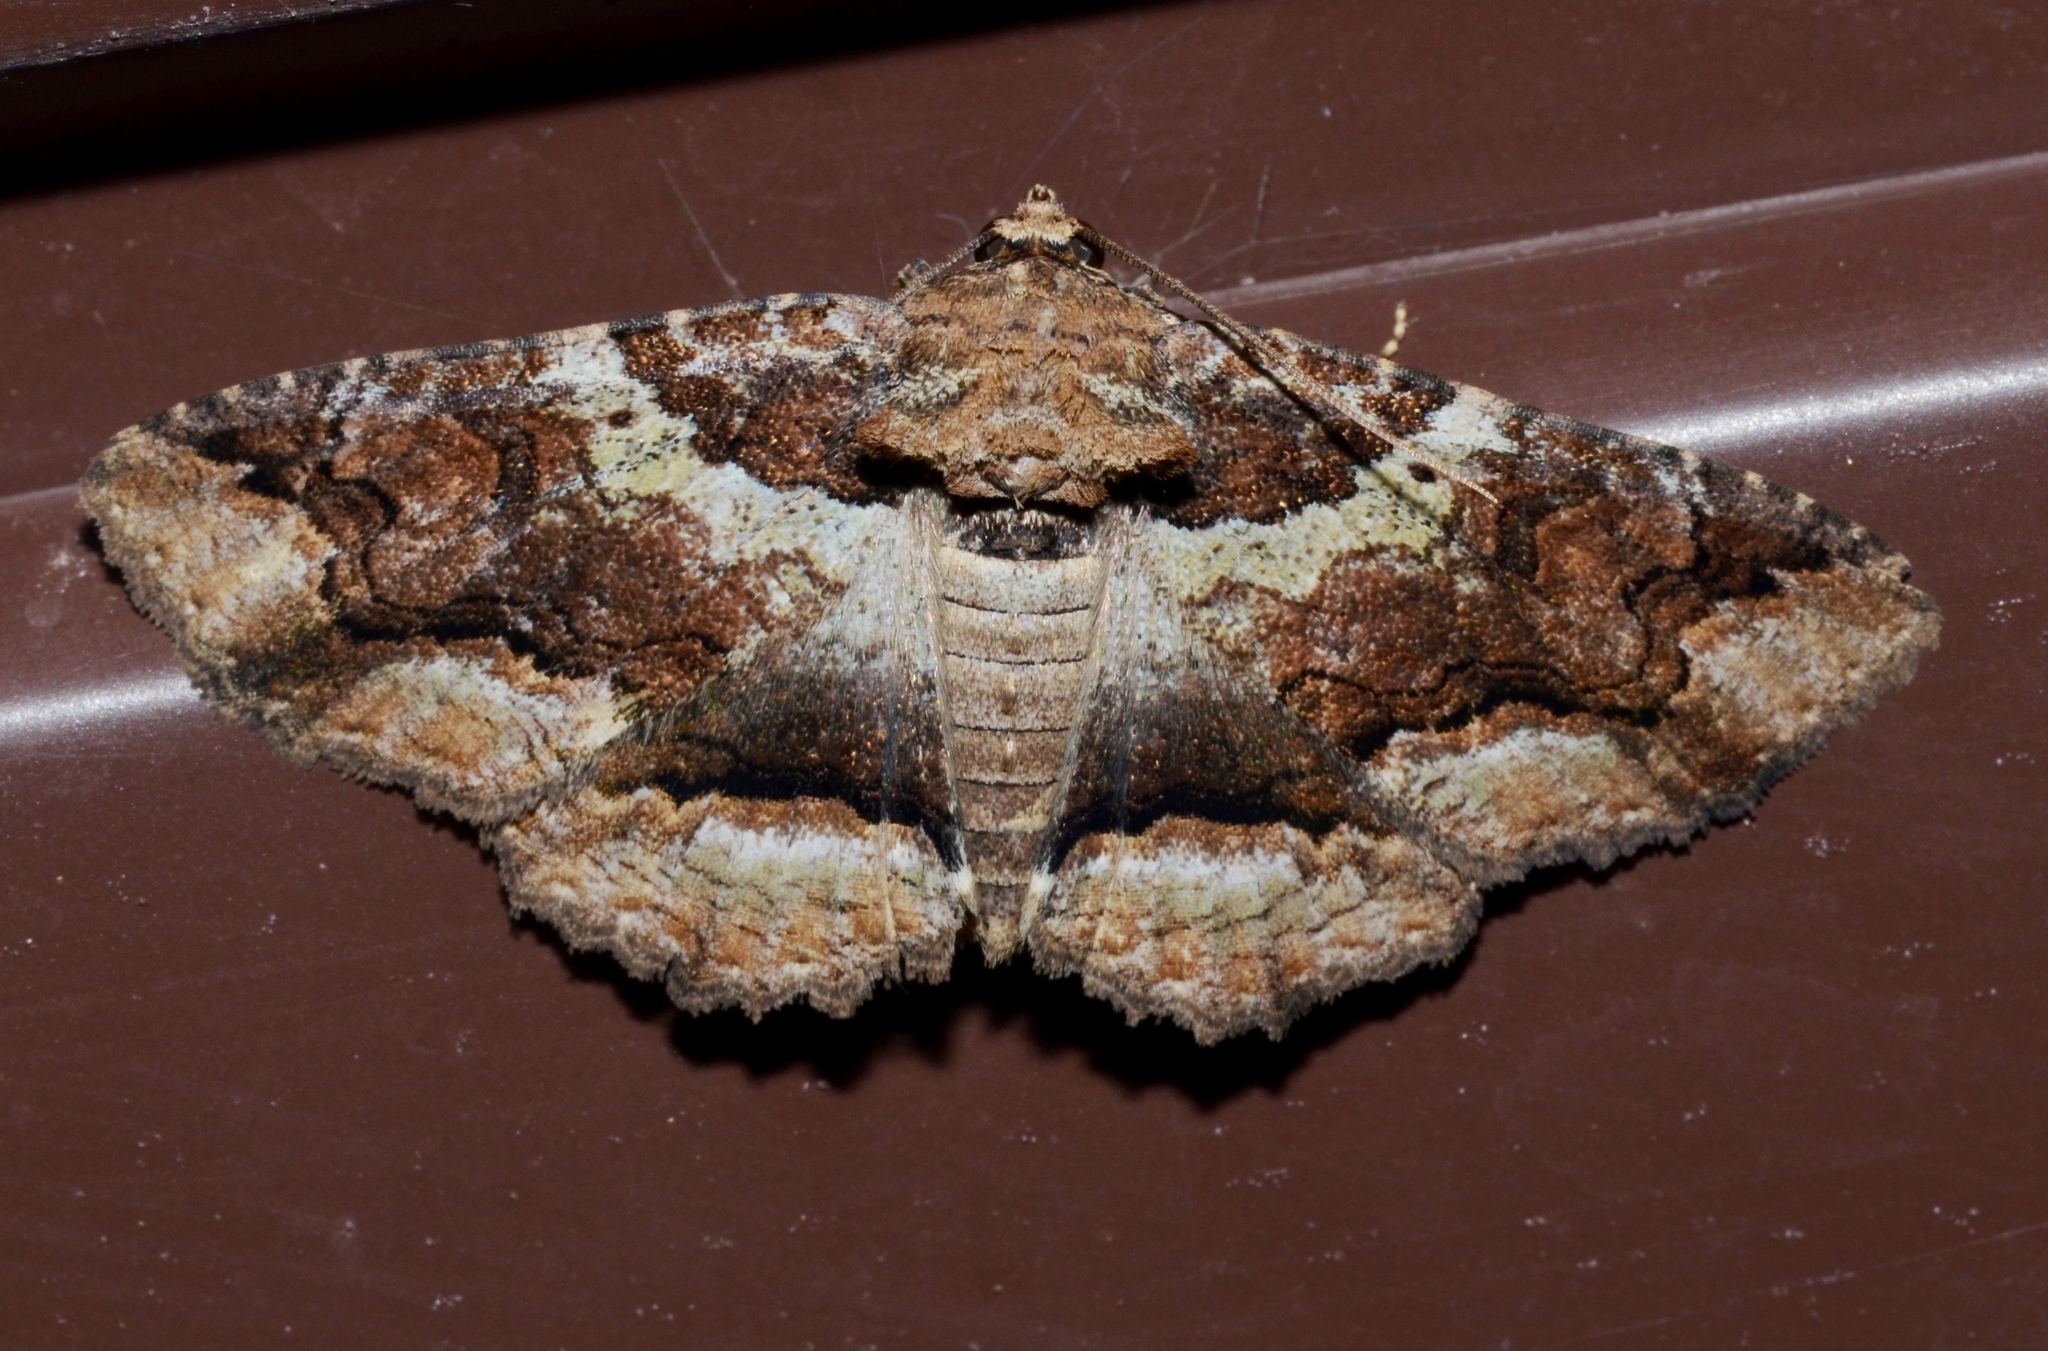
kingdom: Animalia
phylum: Arthropoda
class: Insecta
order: Lepidoptera
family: Erebidae
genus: Zale
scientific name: Zale galbanata
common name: Maple zale
